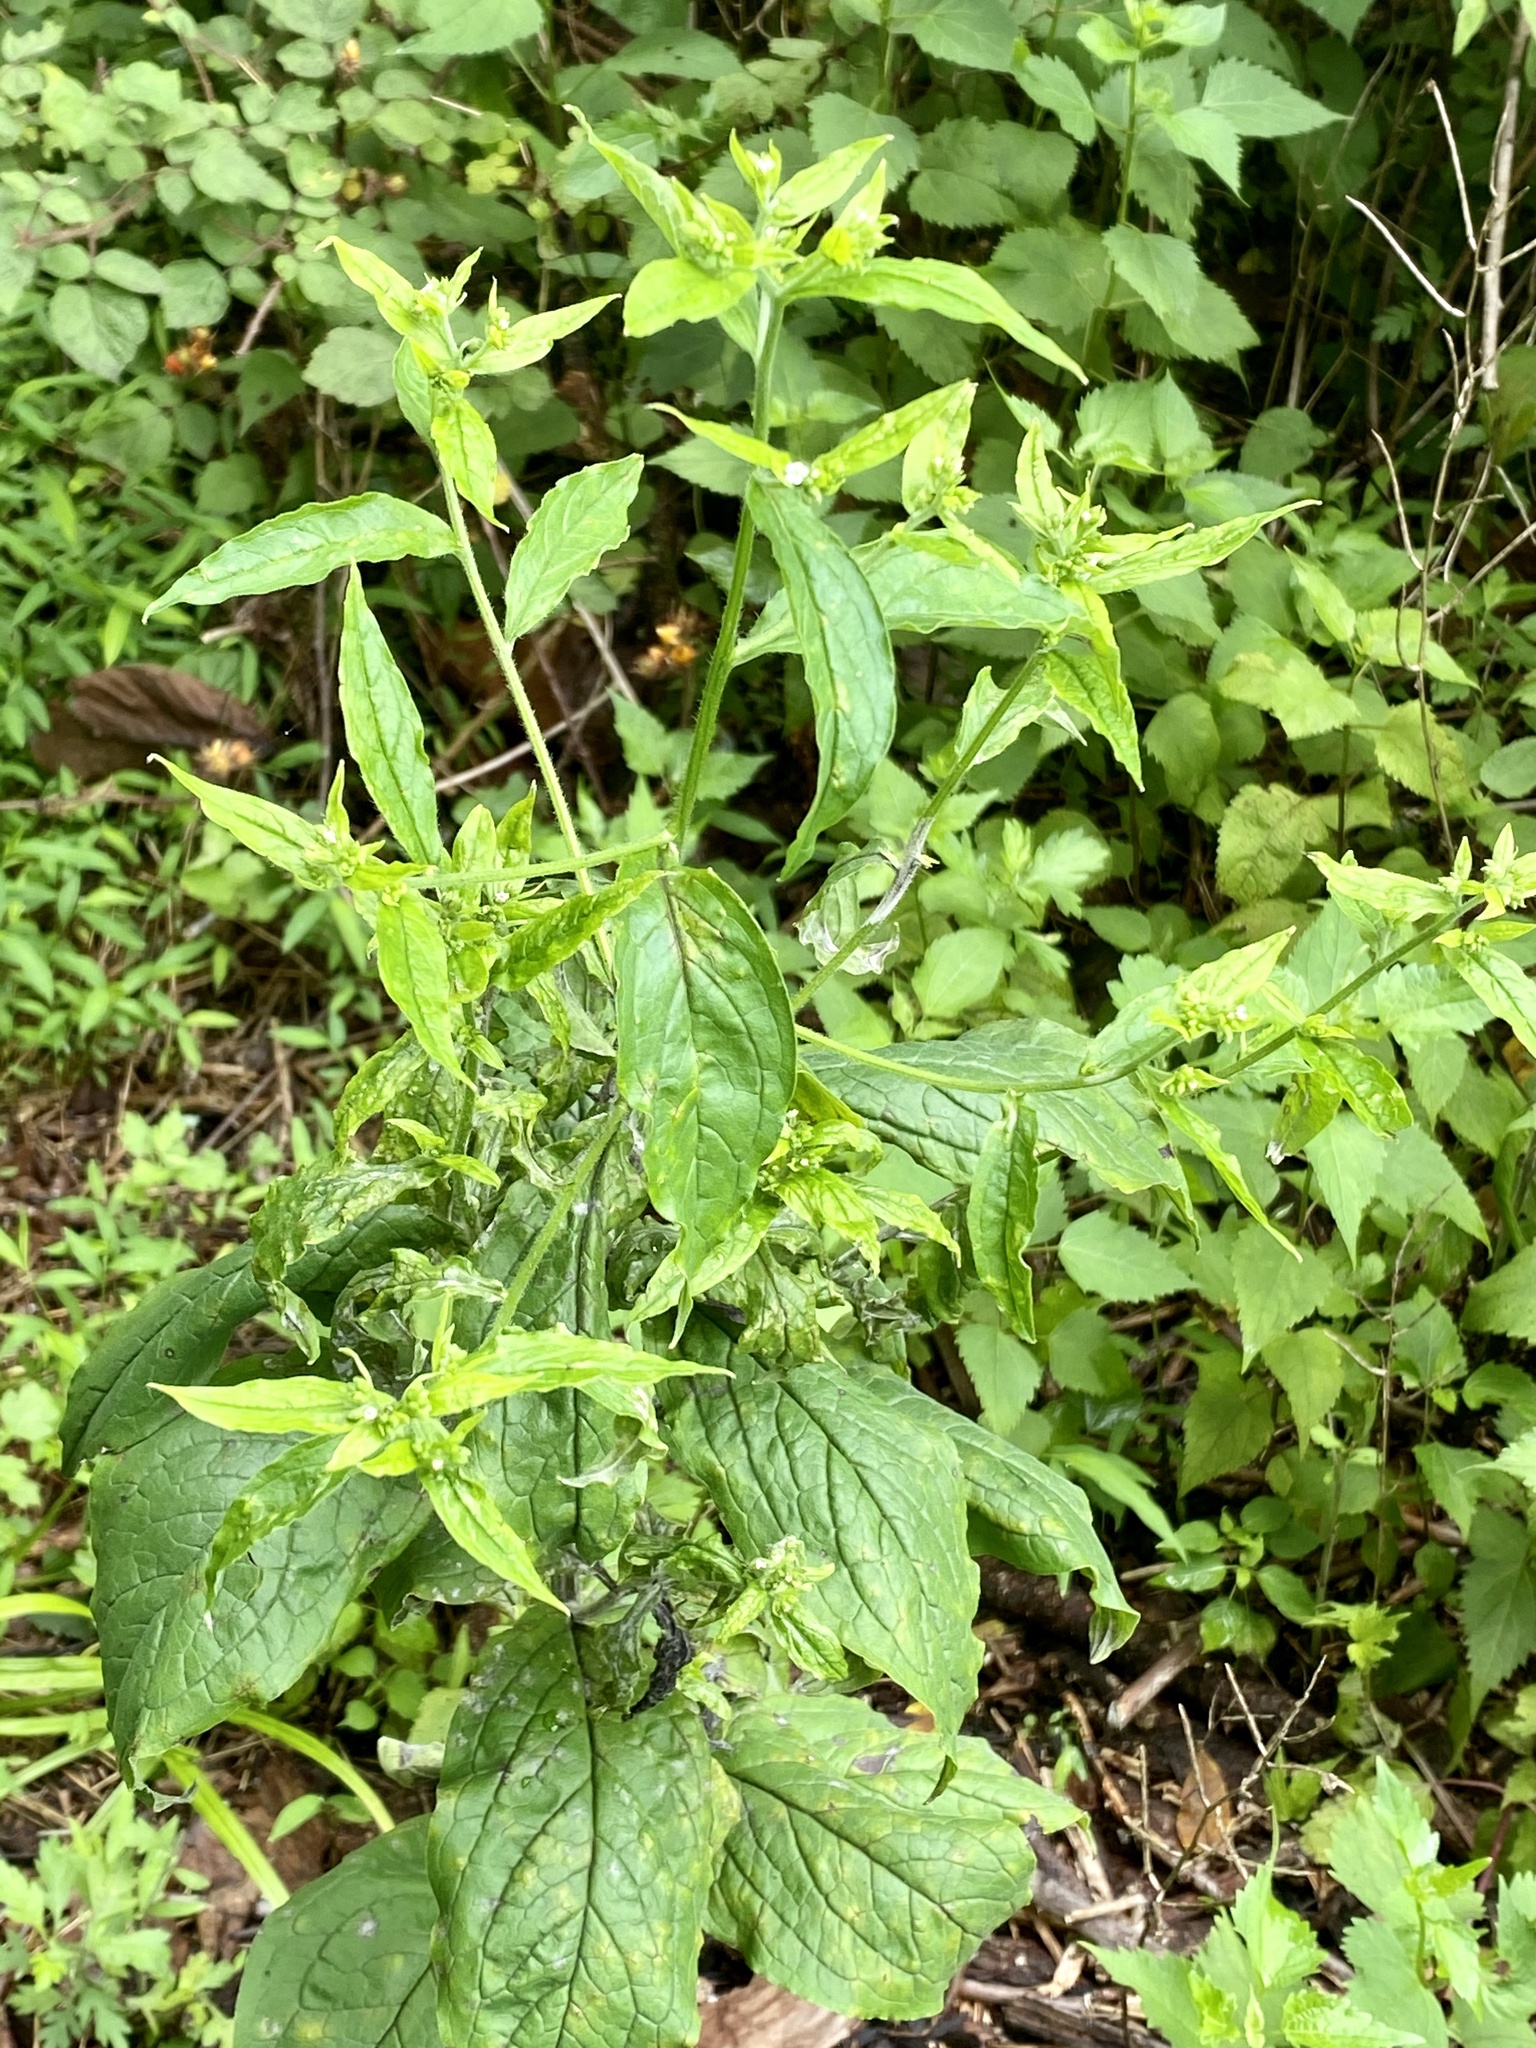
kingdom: Plantae
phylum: Tracheophyta
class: Magnoliopsida
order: Boraginales
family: Boraginaceae
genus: Hackelia
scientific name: Hackelia virginiana
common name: Beggar's-lice
